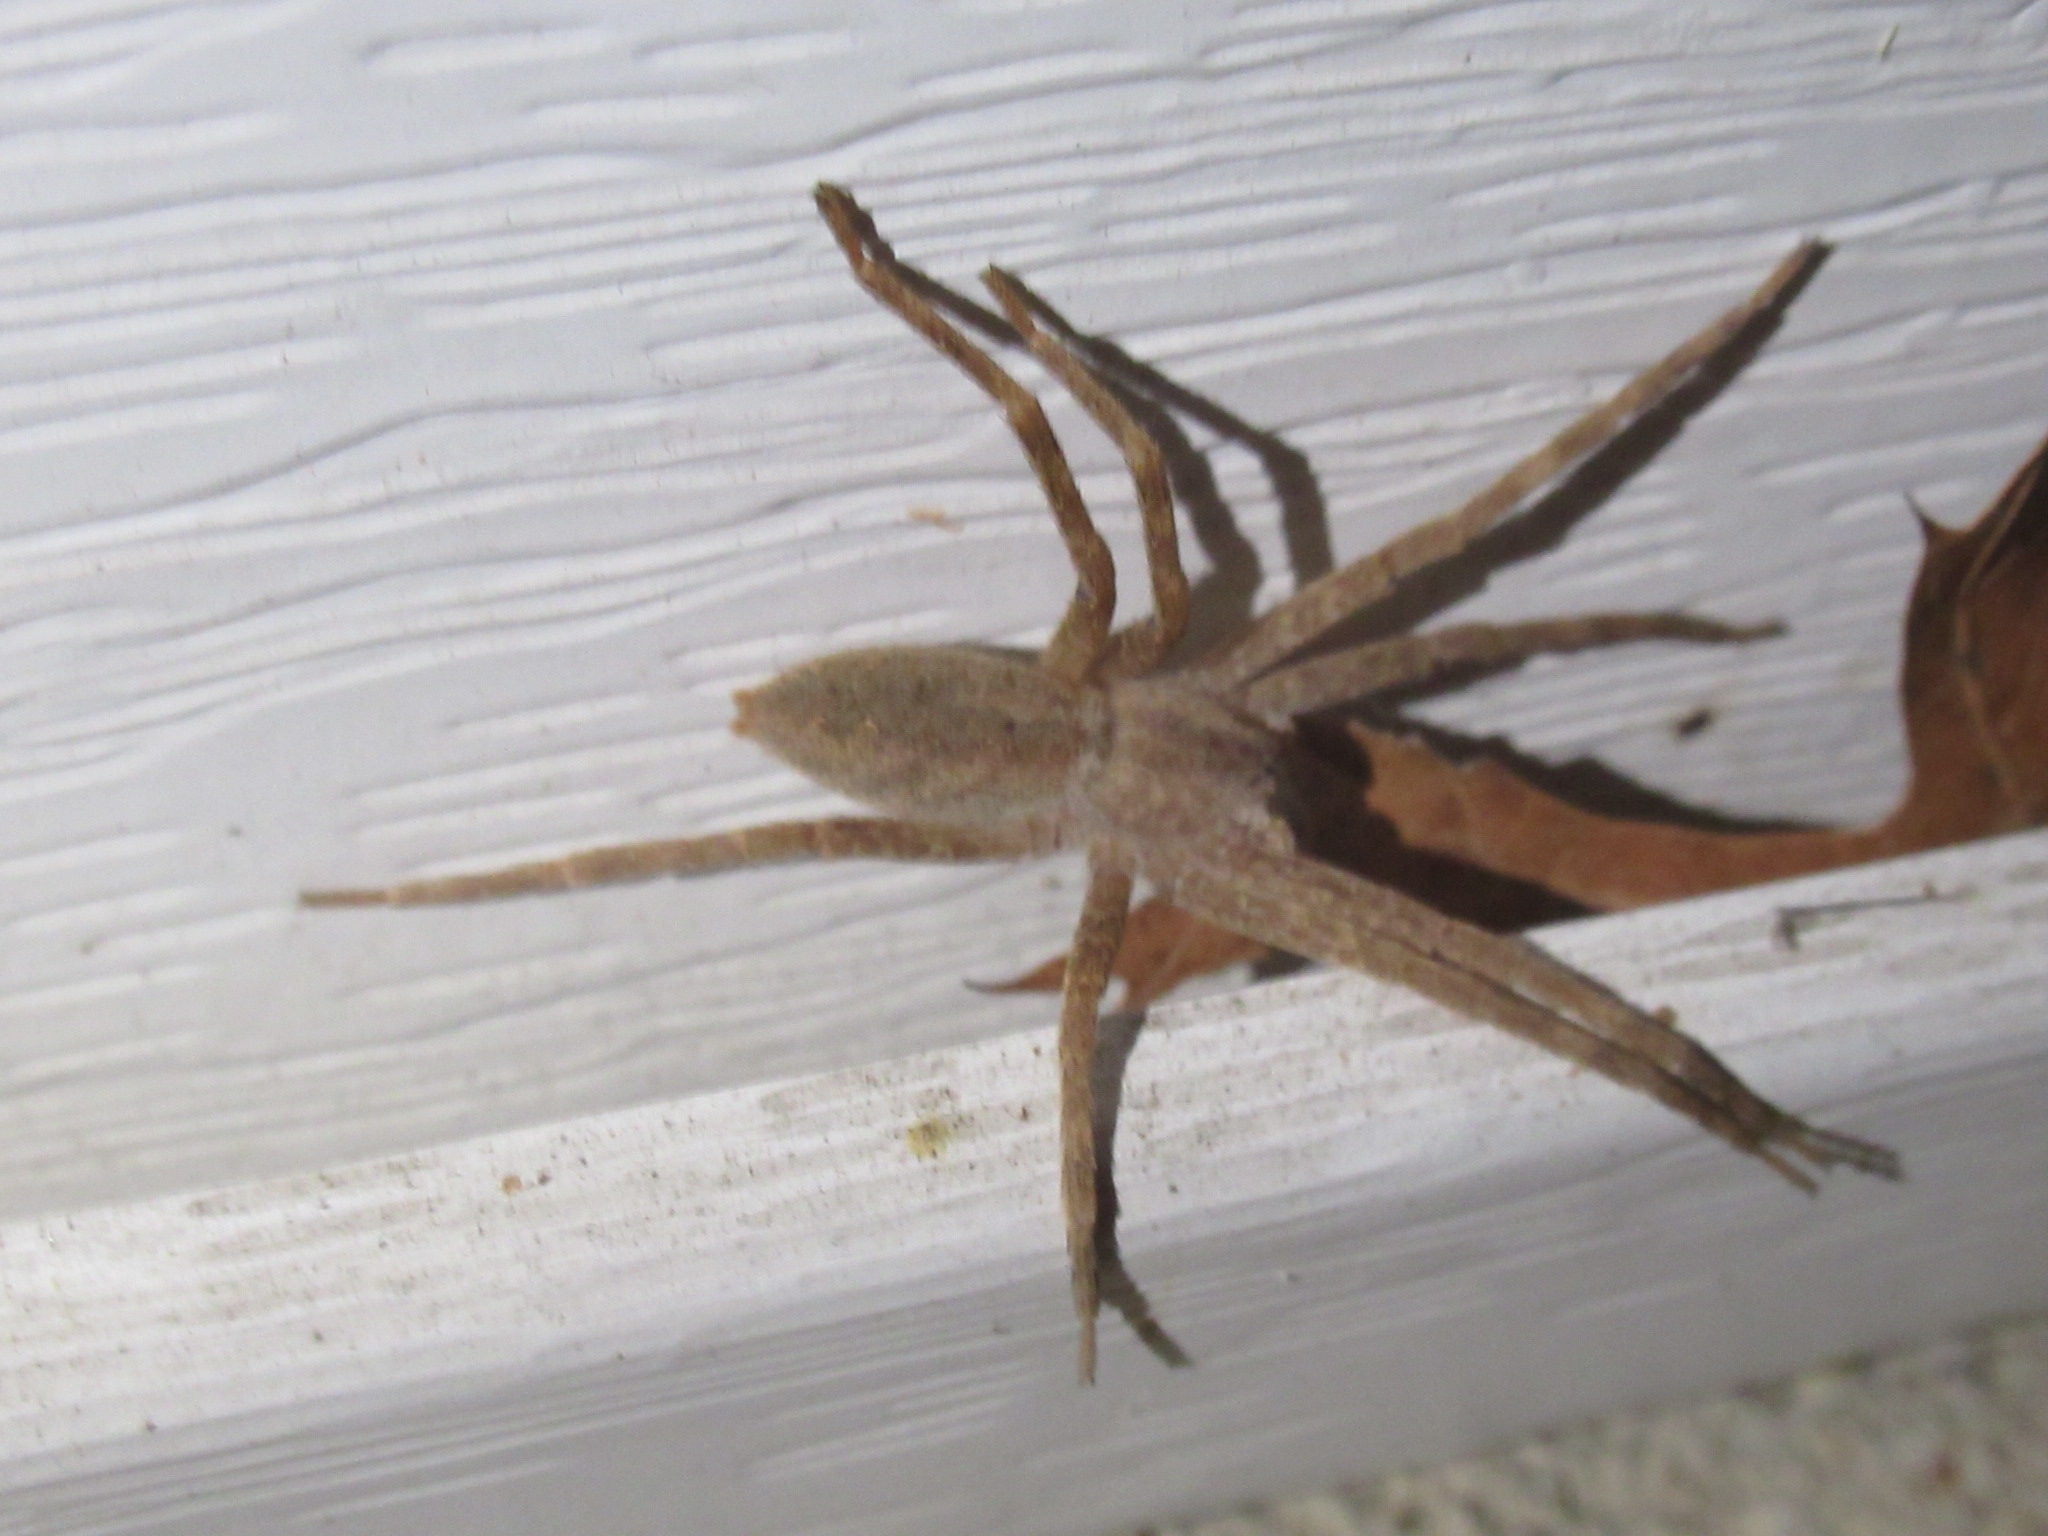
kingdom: Animalia
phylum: Arthropoda
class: Arachnida
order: Araneae
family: Pisauridae
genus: Pisaurina
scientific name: Pisaurina mira
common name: American nursery web spider
